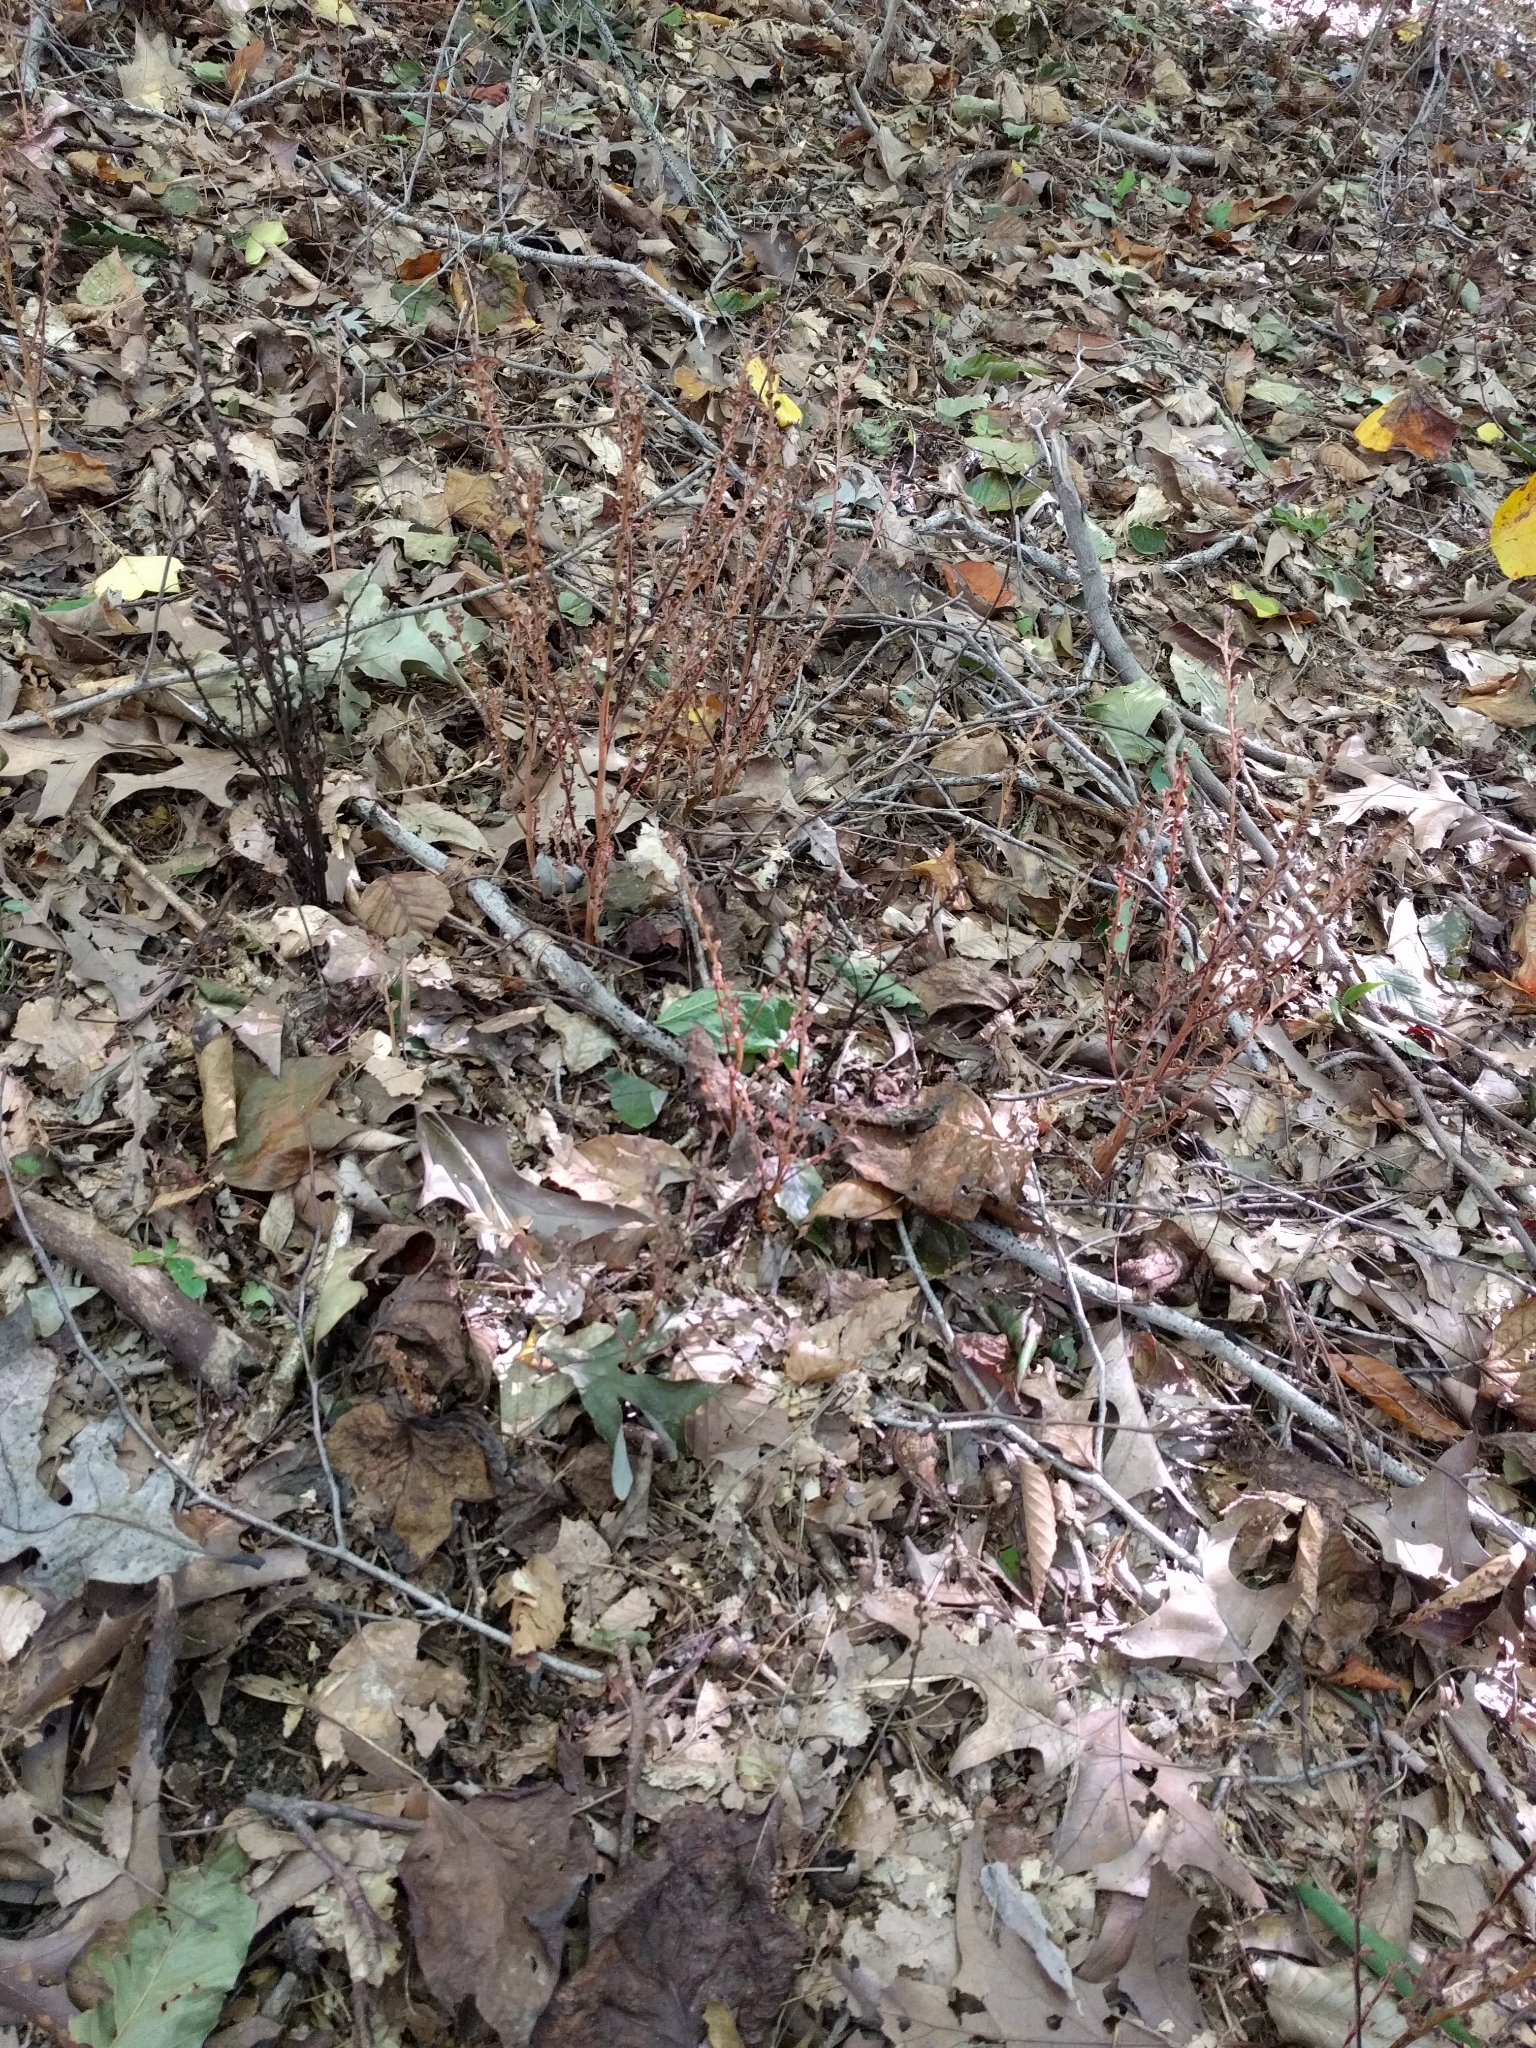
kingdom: Plantae
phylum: Tracheophyta
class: Magnoliopsida
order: Lamiales
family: Orobanchaceae
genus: Epifagus
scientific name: Epifagus virginiana
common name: Beechdrops
